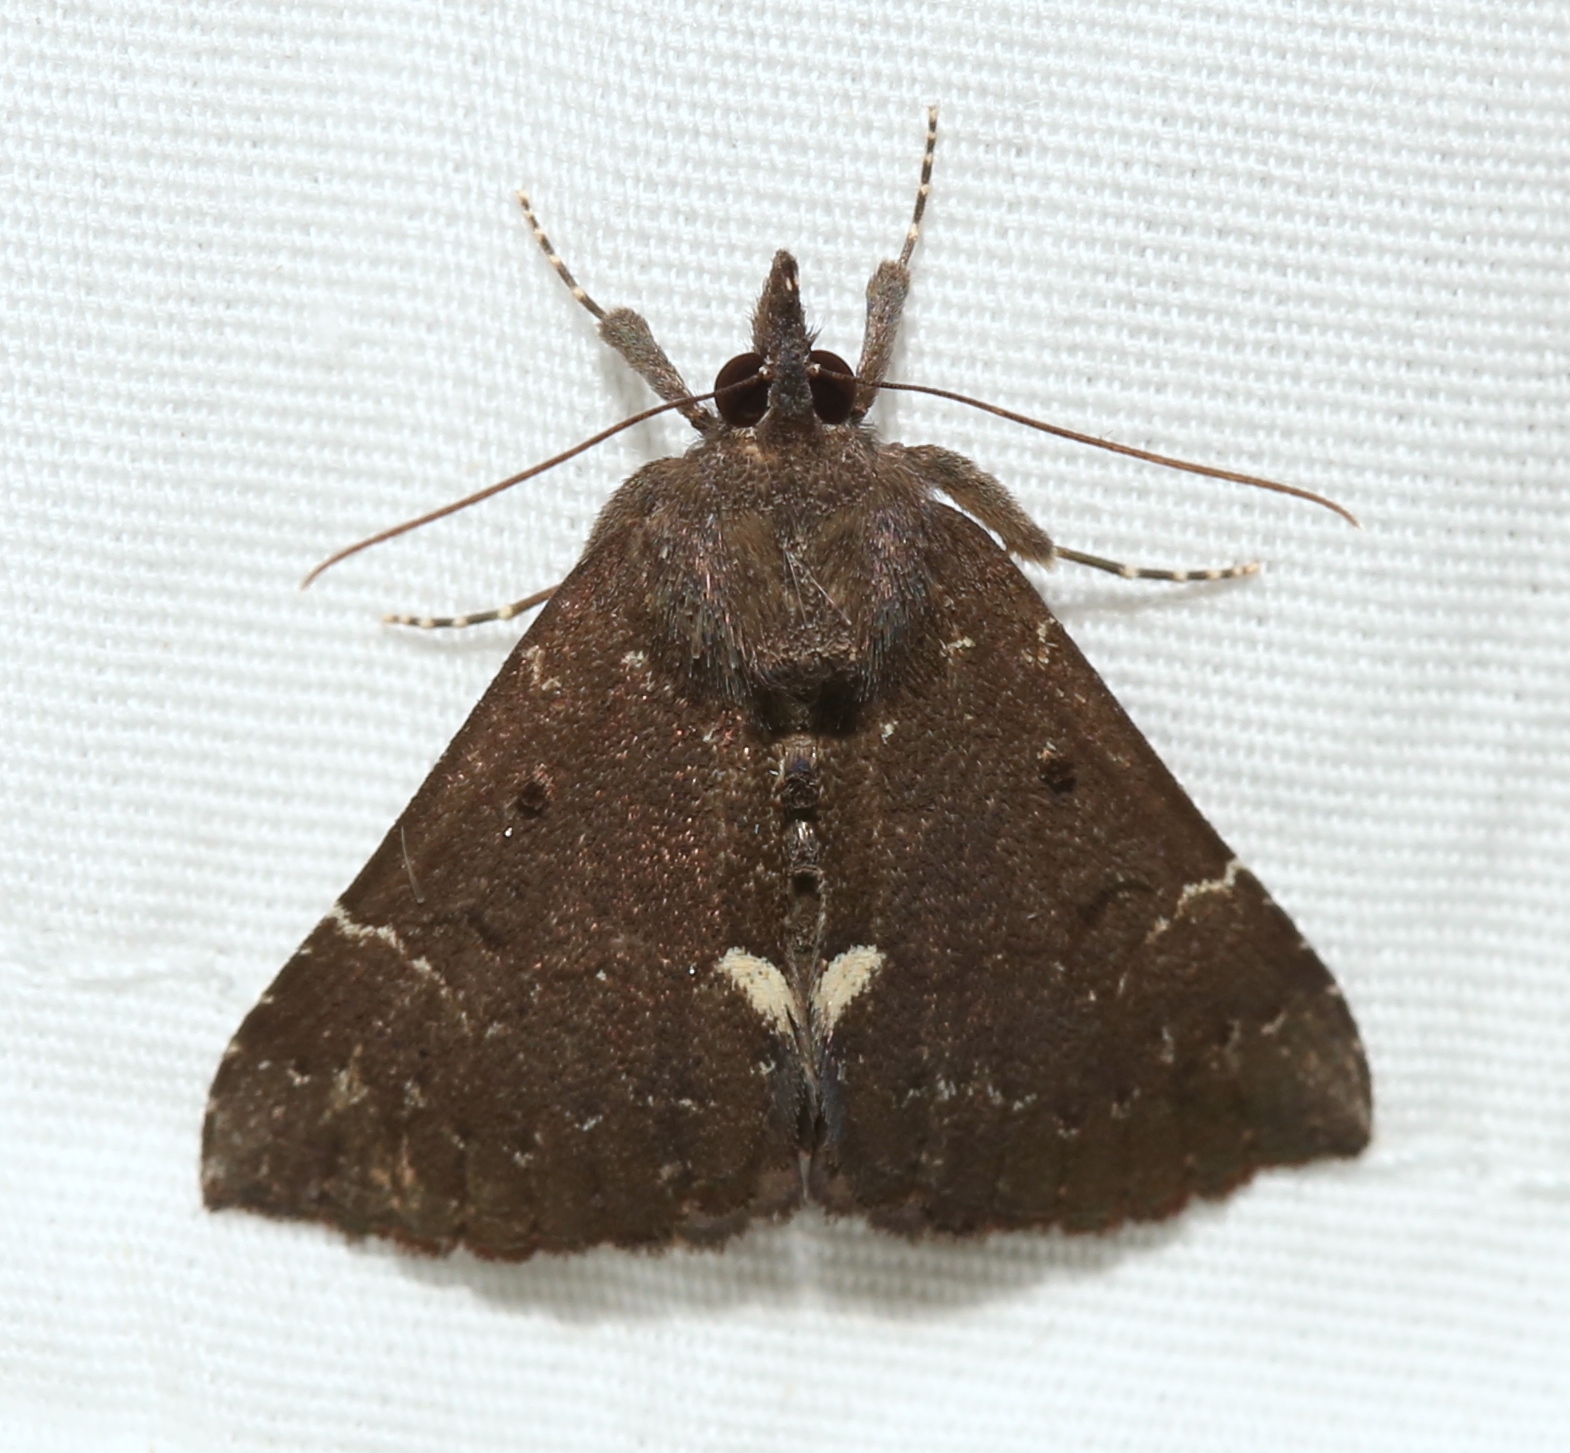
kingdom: Animalia
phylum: Arthropoda
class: Insecta
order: Lepidoptera
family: Erebidae
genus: Hypena
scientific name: Hypena bijugalis
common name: Dimorphic bomolocha moth
